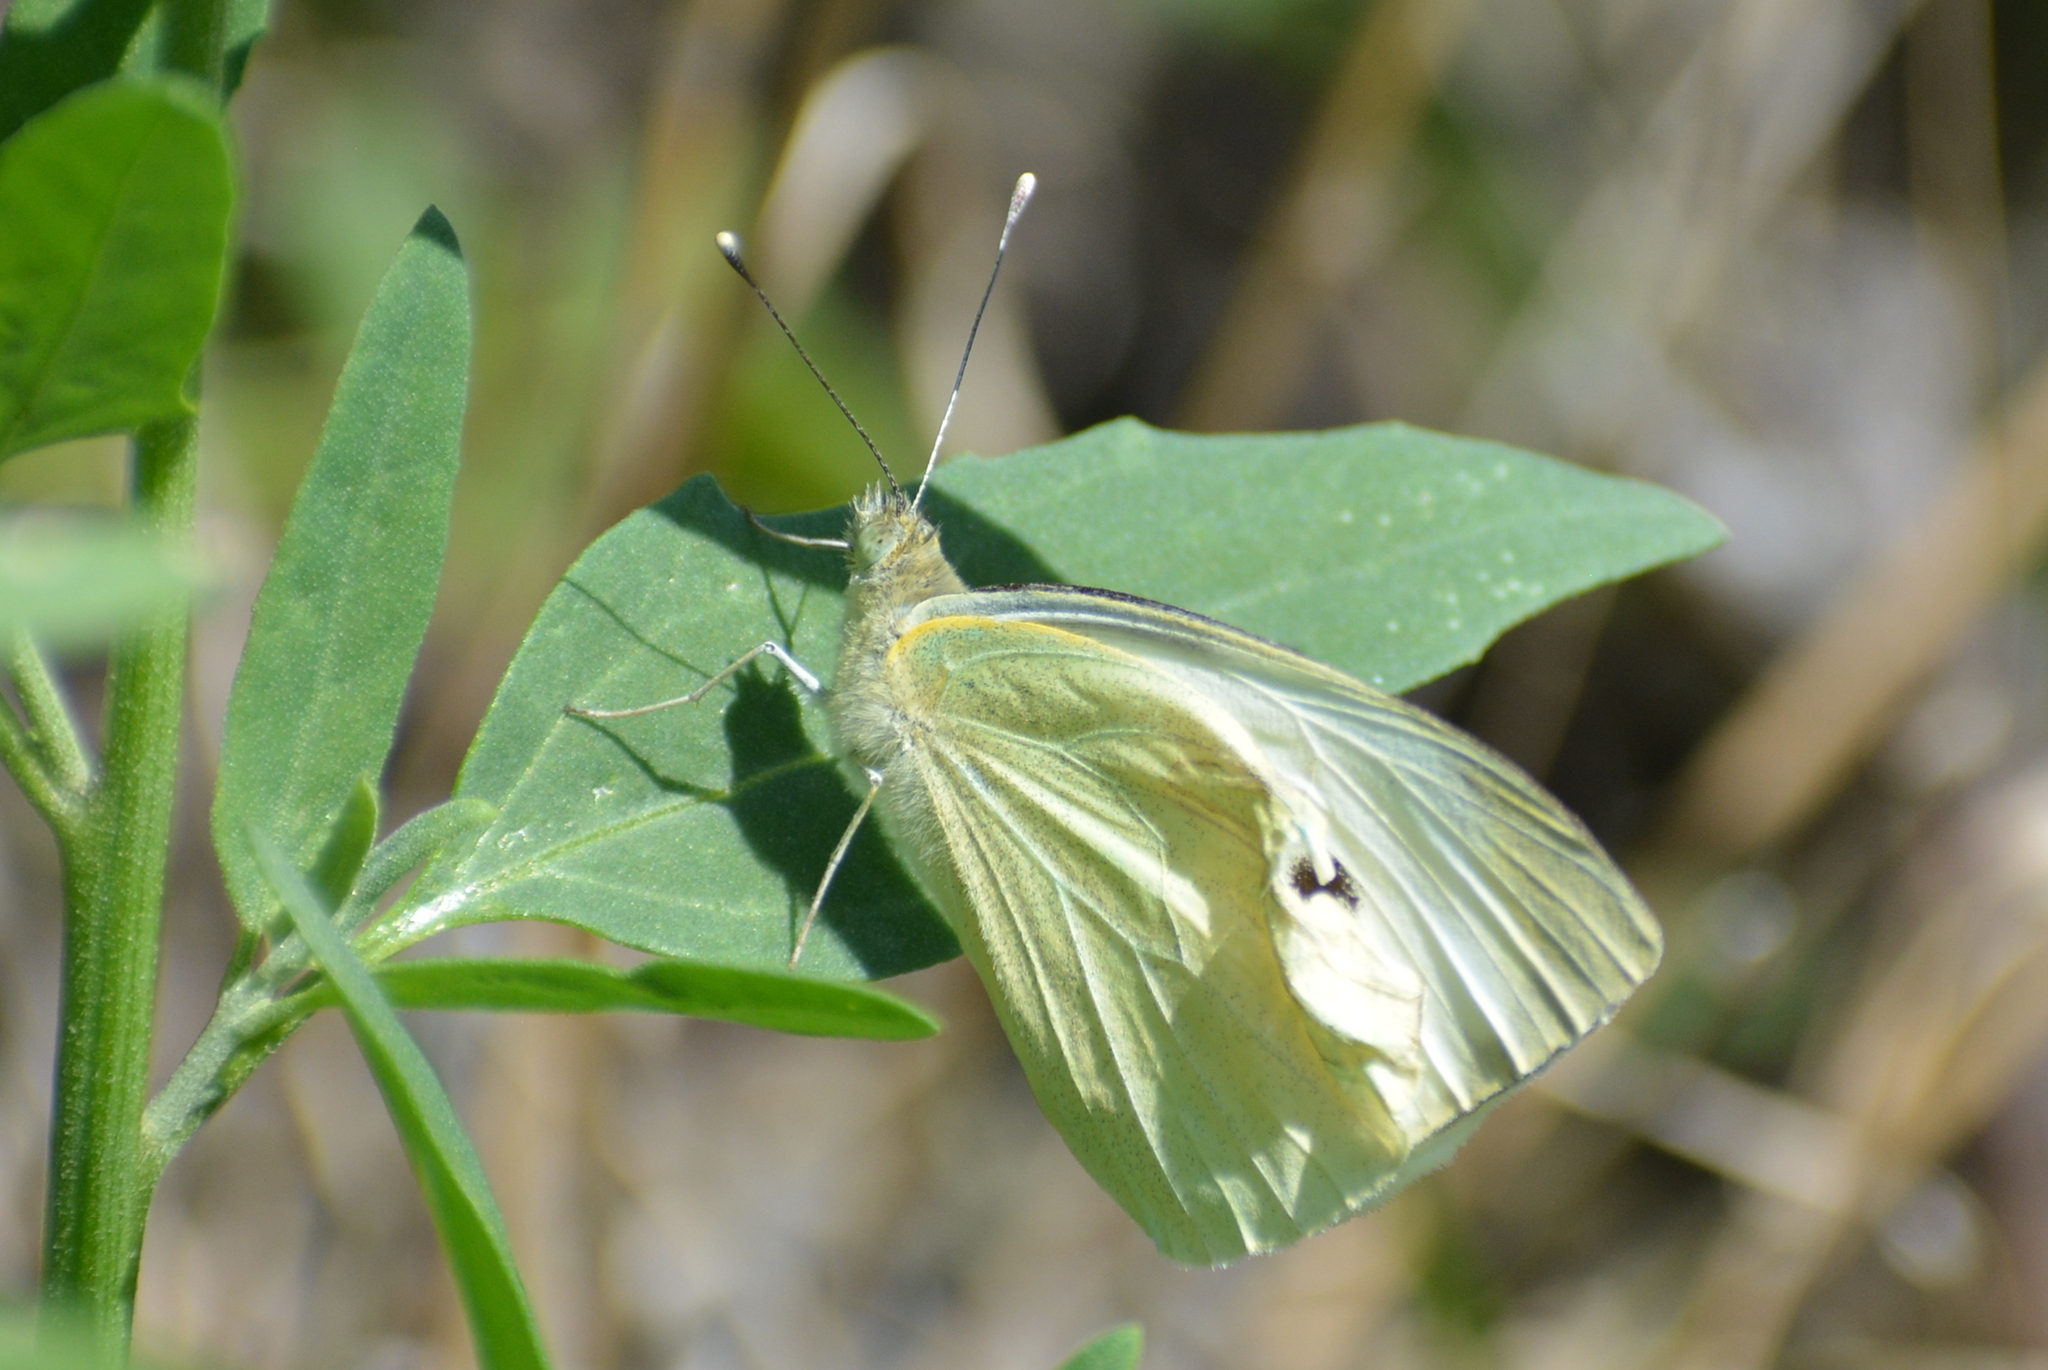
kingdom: Animalia
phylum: Arthropoda
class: Insecta
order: Lepidoptera
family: Pieridae
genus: Pieris
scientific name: Pieris brassicae
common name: Large white
